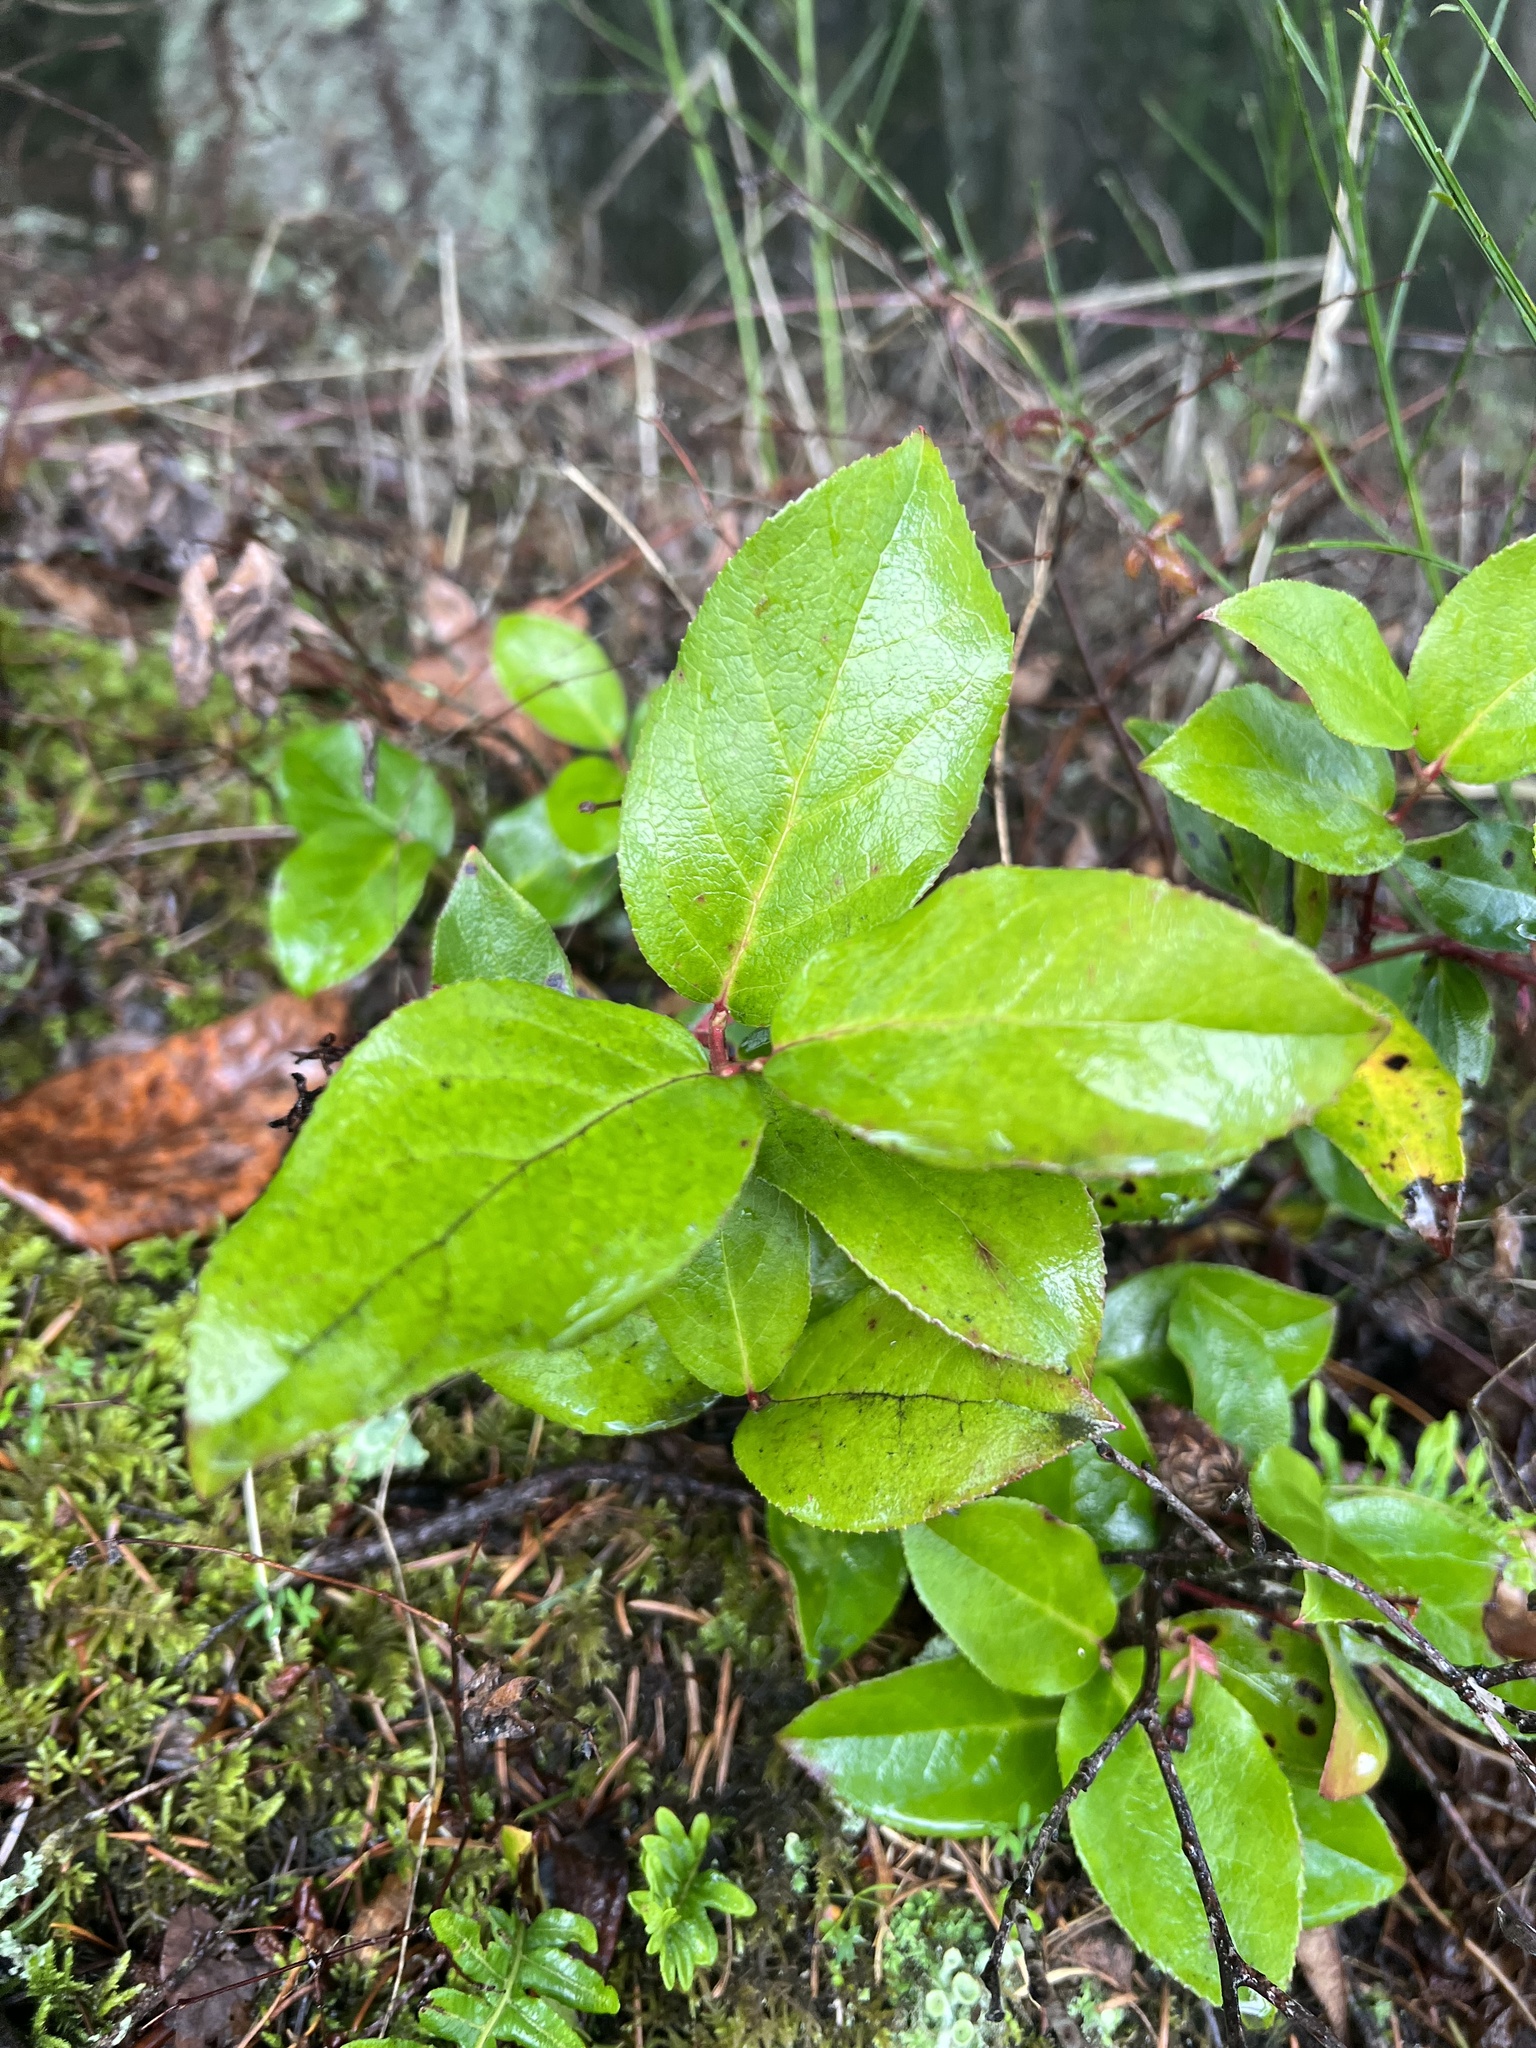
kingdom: Plantae
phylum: Tracheophyta
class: Magnoliopsida
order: Ericales
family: Ericaceae
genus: Gaultheria
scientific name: Gaultheria shallon
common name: Shallon
